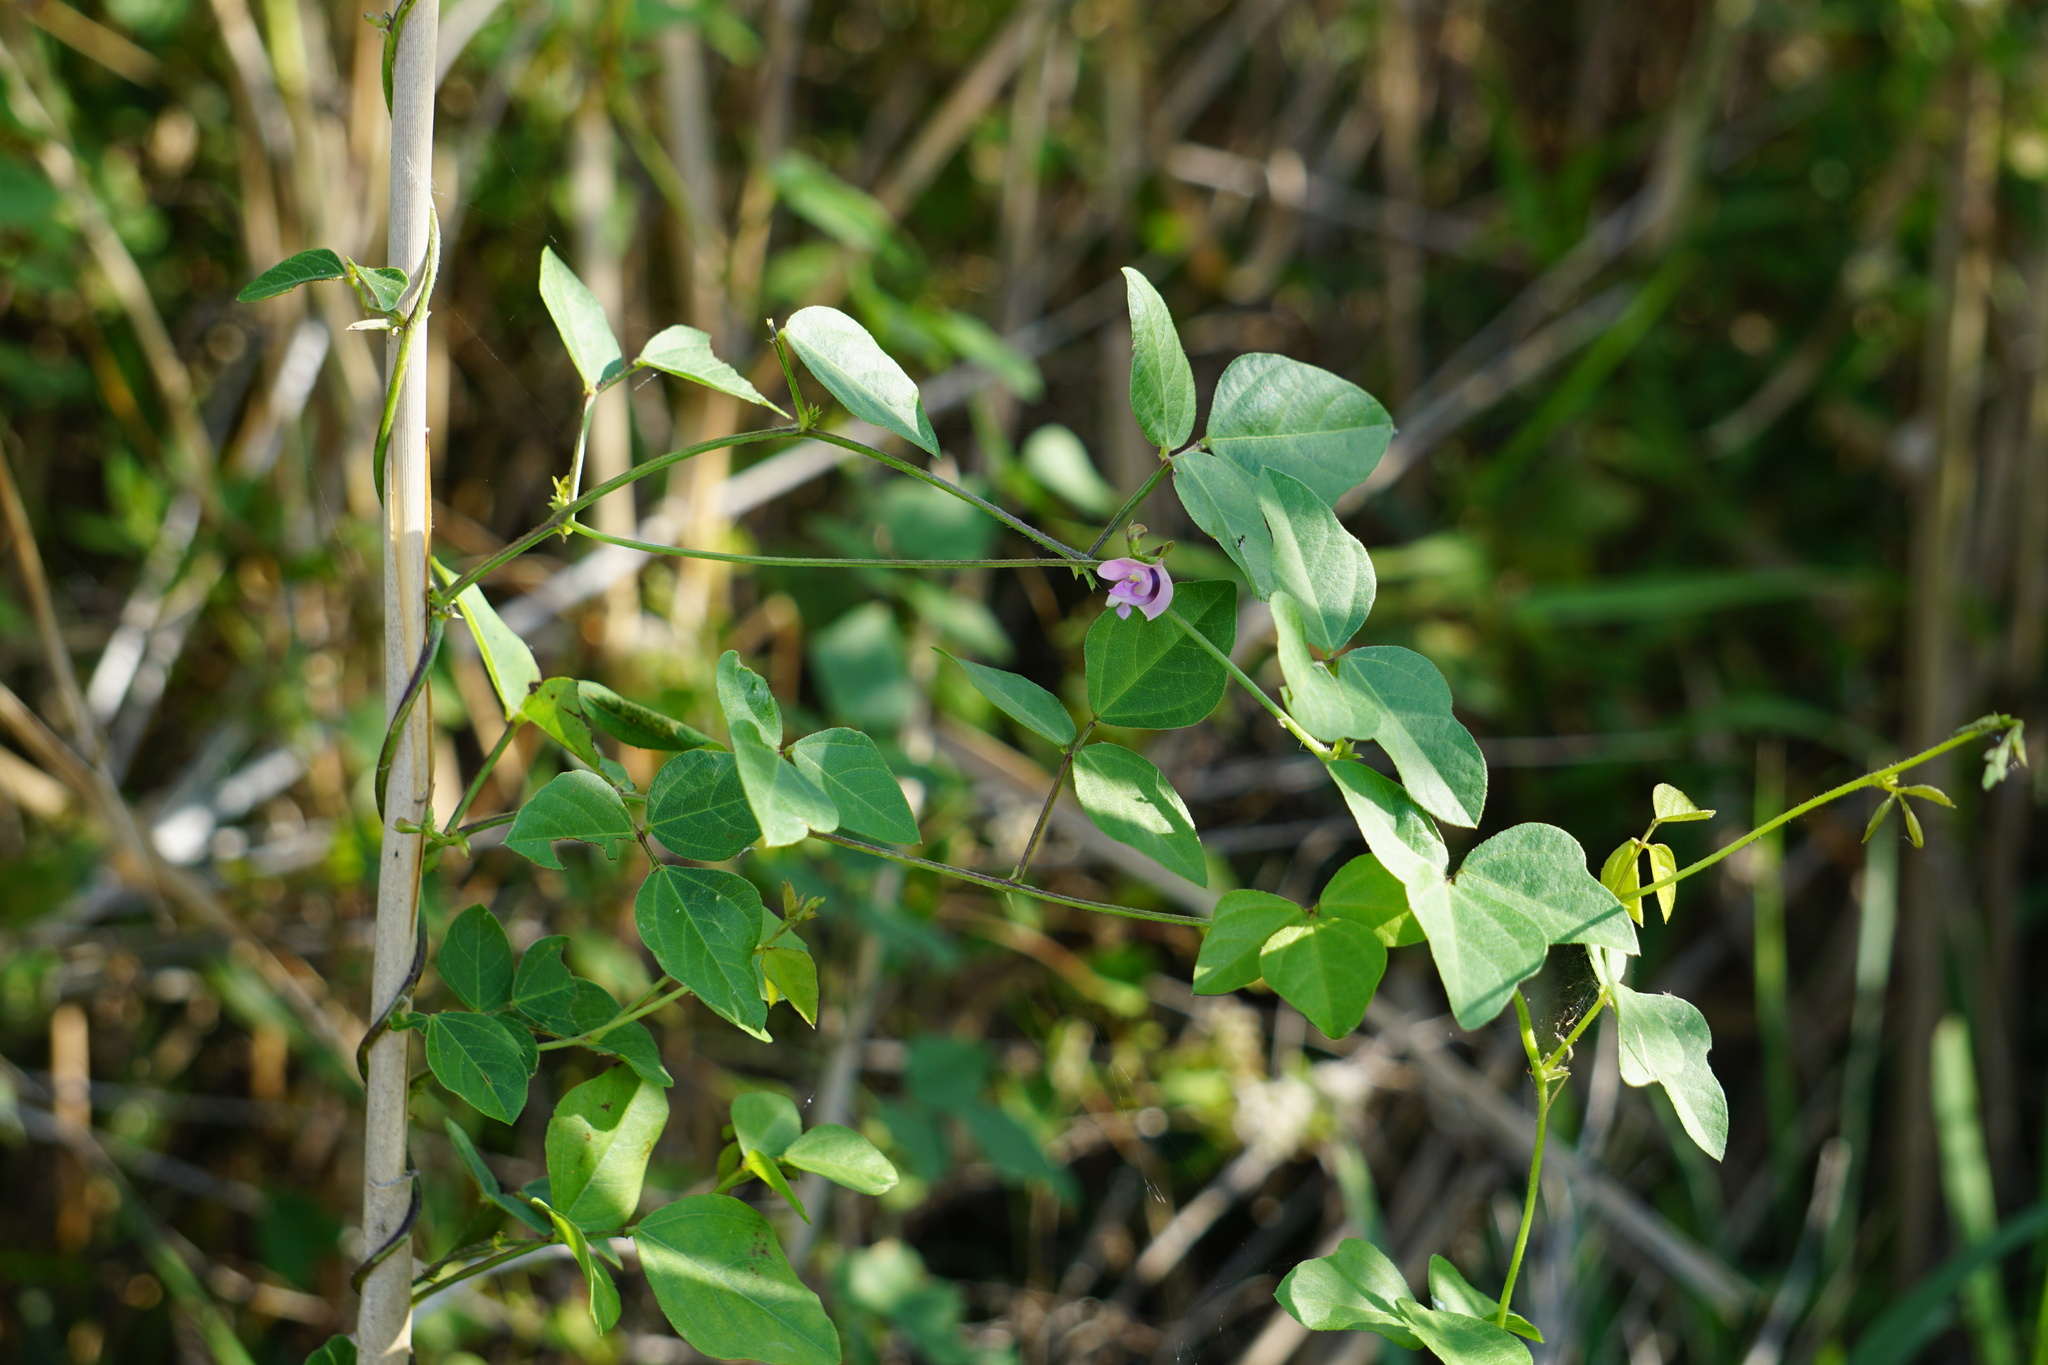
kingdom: Plantae
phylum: Tracheophyta
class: Magnoliopsida
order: Fabales
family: Fabaceae
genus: Strophostyles
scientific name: Strophostyles helvola
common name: Trailing wild bean
